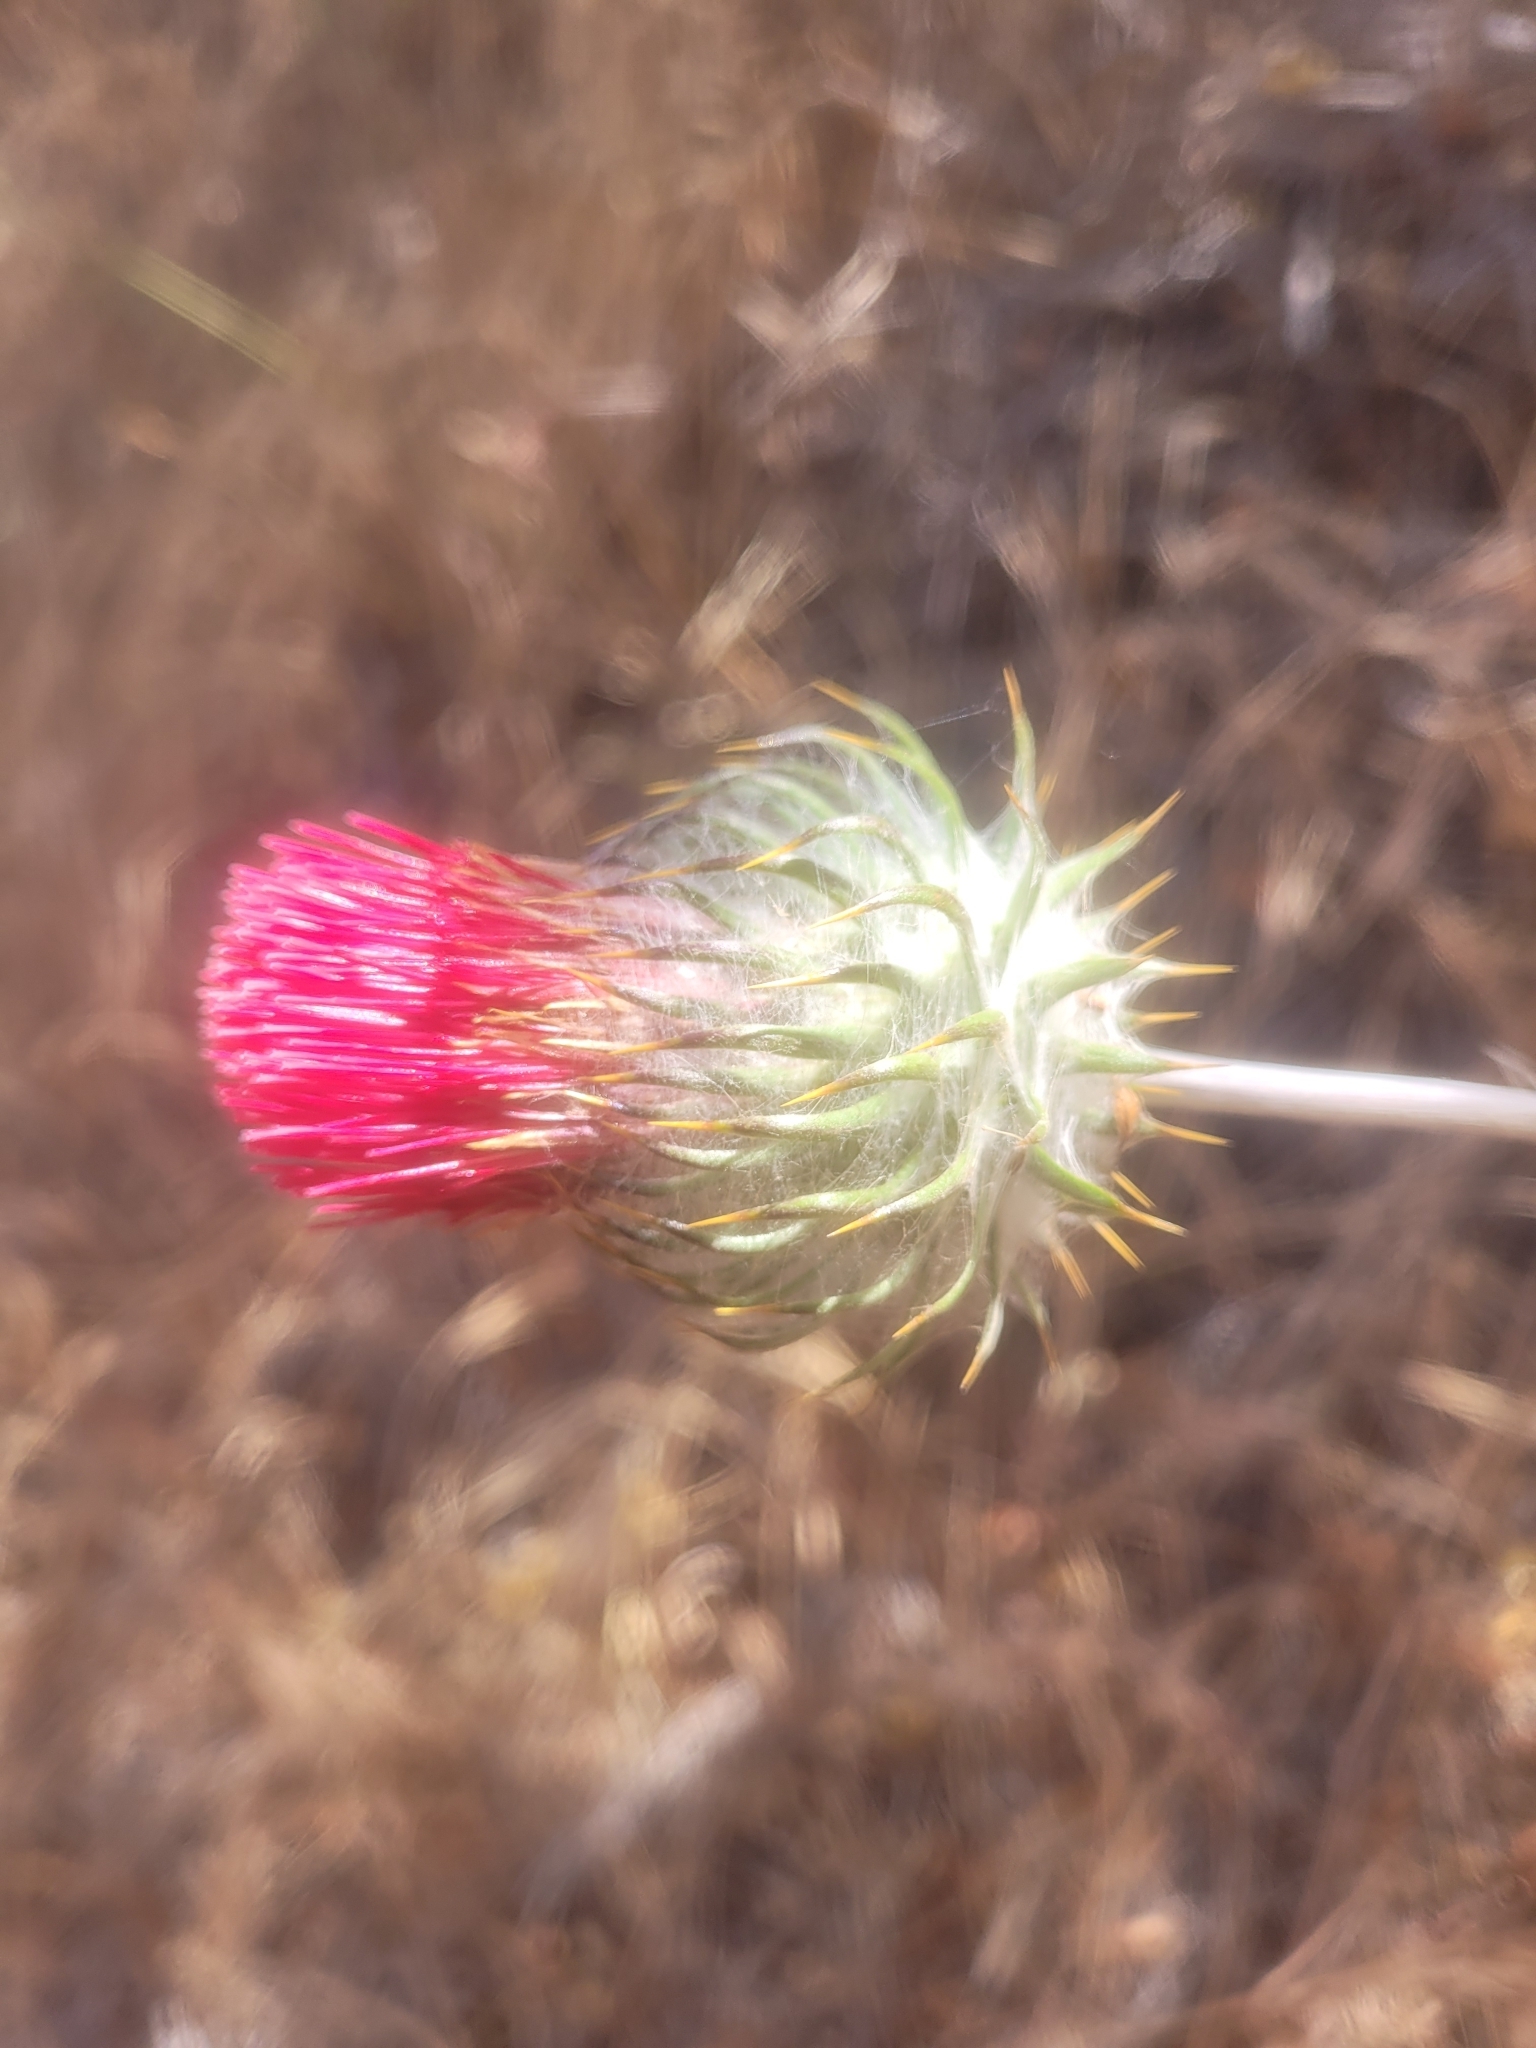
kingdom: Plantae
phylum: Tracheophyta
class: Magnoliopsida
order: Asterales
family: Asteraceae
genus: Cirsium
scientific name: Cirsium occidentale
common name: Western thistle
